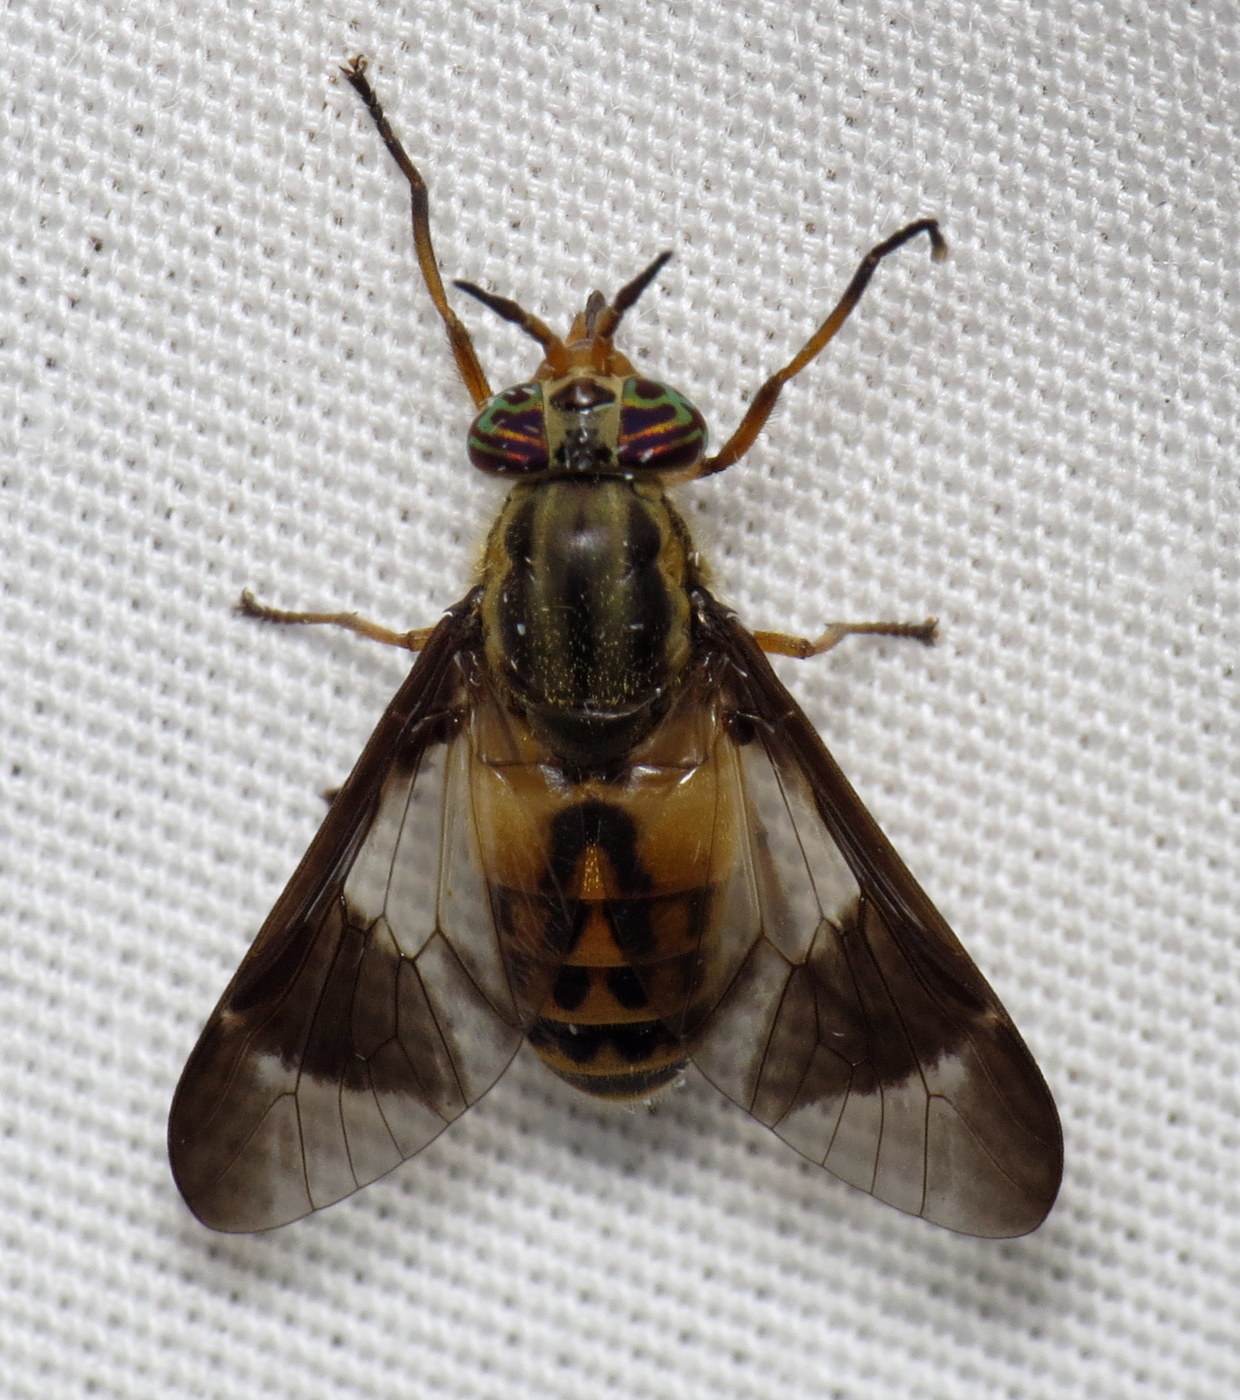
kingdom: Animalia
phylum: Arthropoda
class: Insecta
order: Diptera
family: Tabanidae
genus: Chrysops
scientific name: Chrysops montanus
